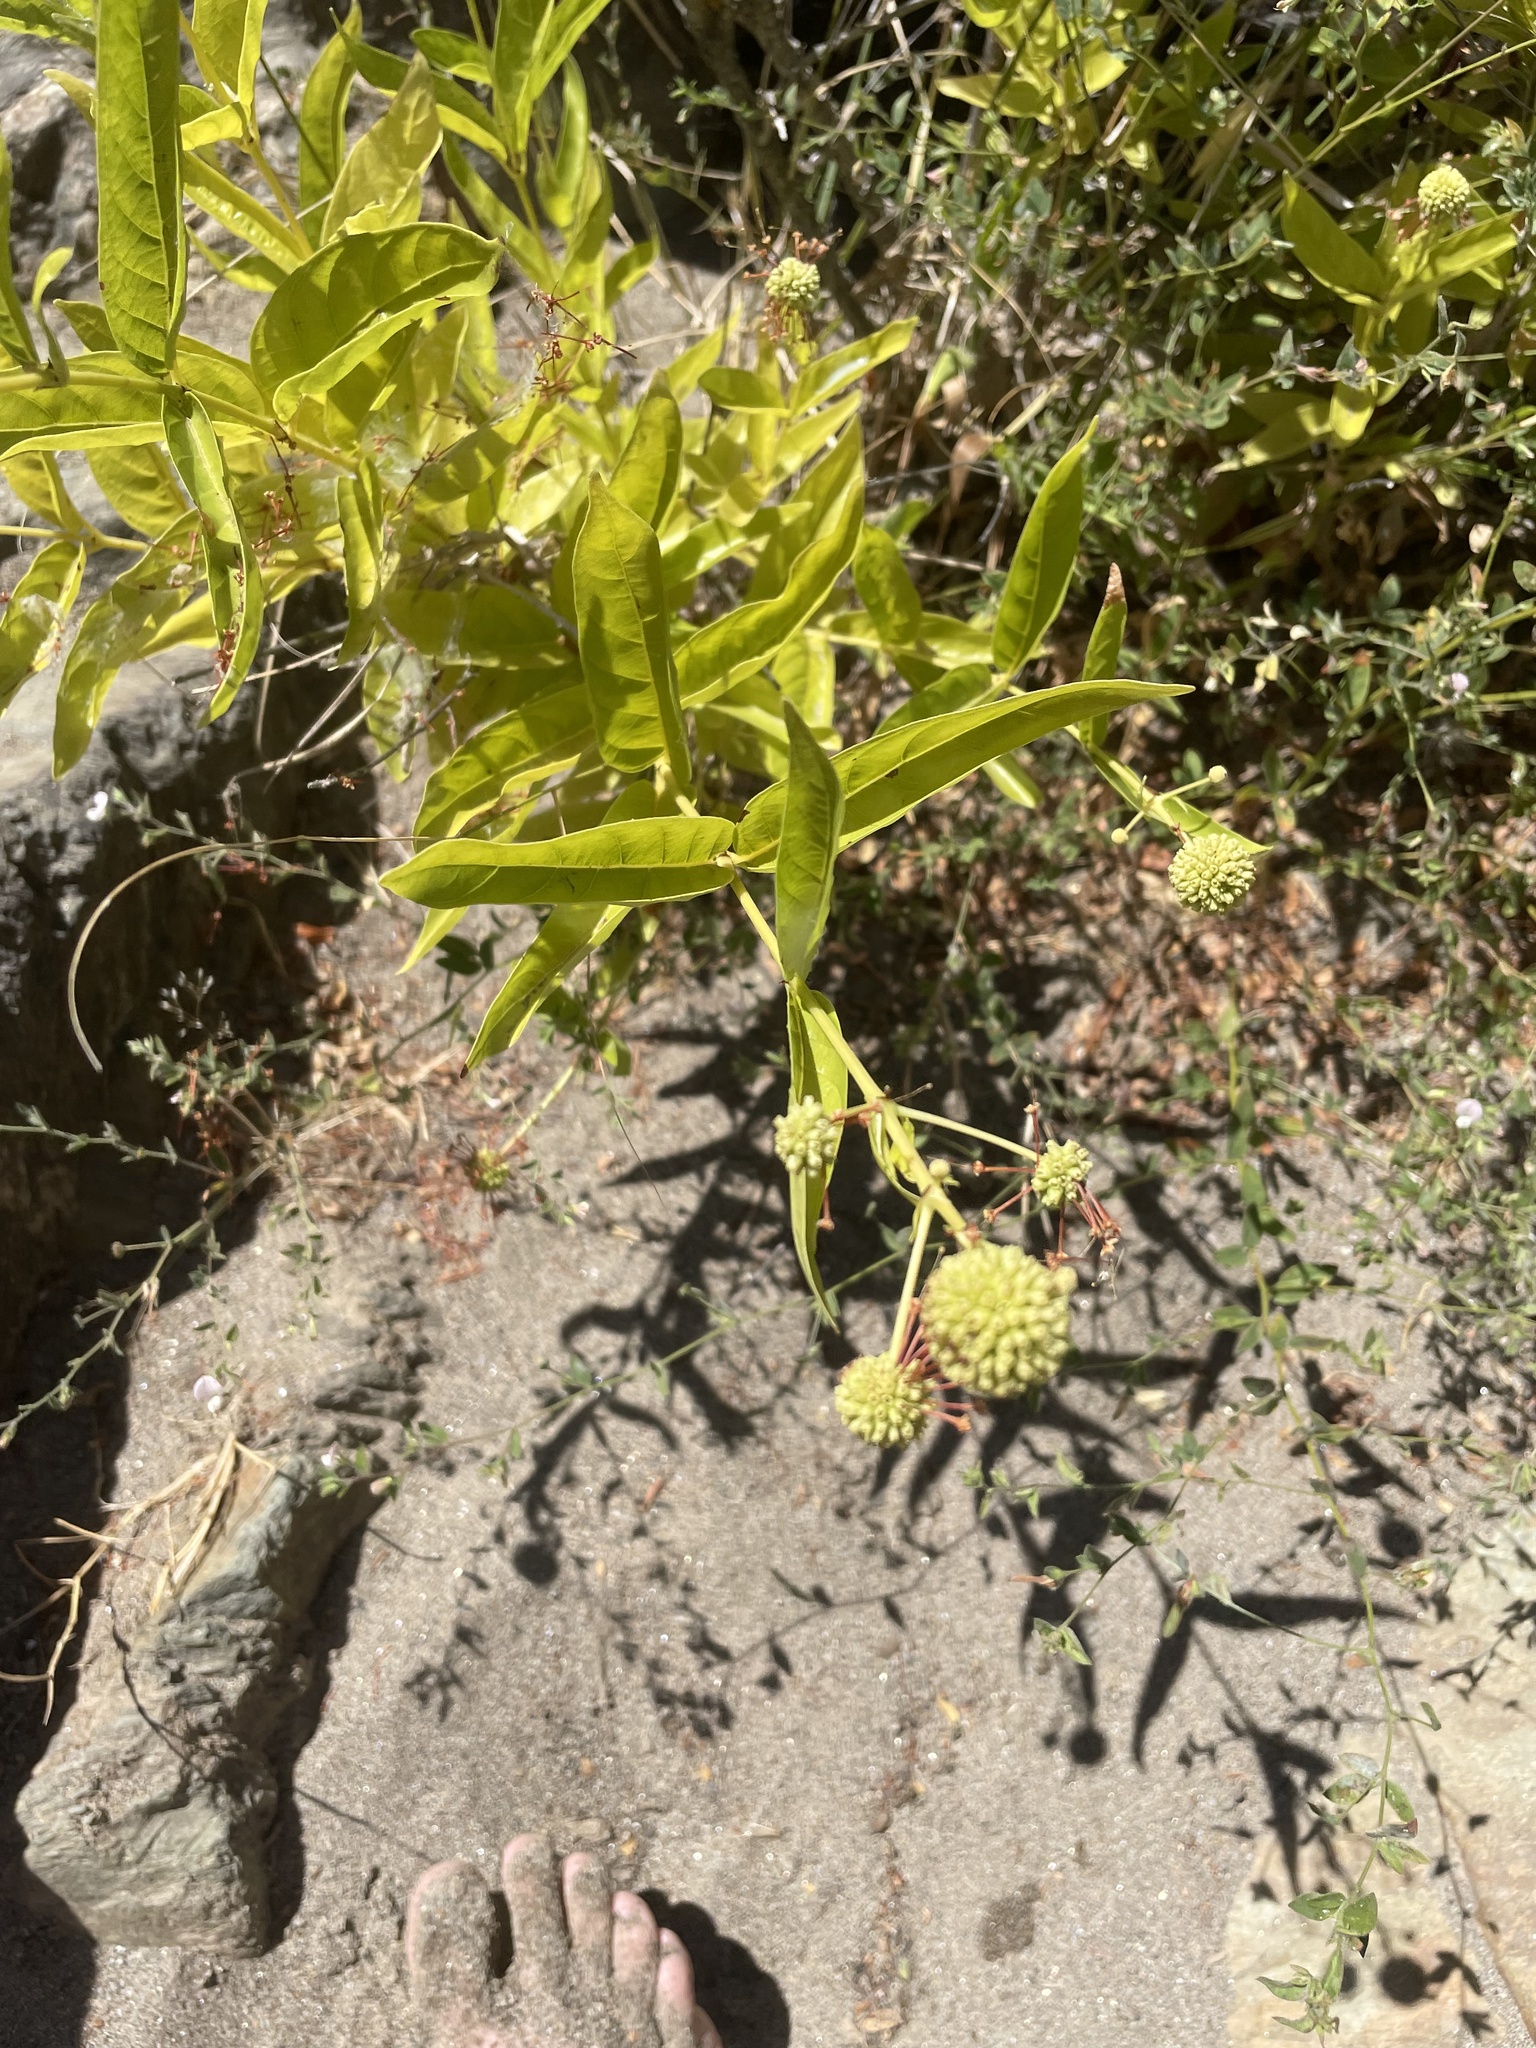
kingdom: Plantae
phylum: Tracheophyta
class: Magnoliopsida
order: Gentianales
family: Rubiaceae
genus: Cephalanthus
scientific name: Cephalanthus occidentalis
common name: Button-willow
